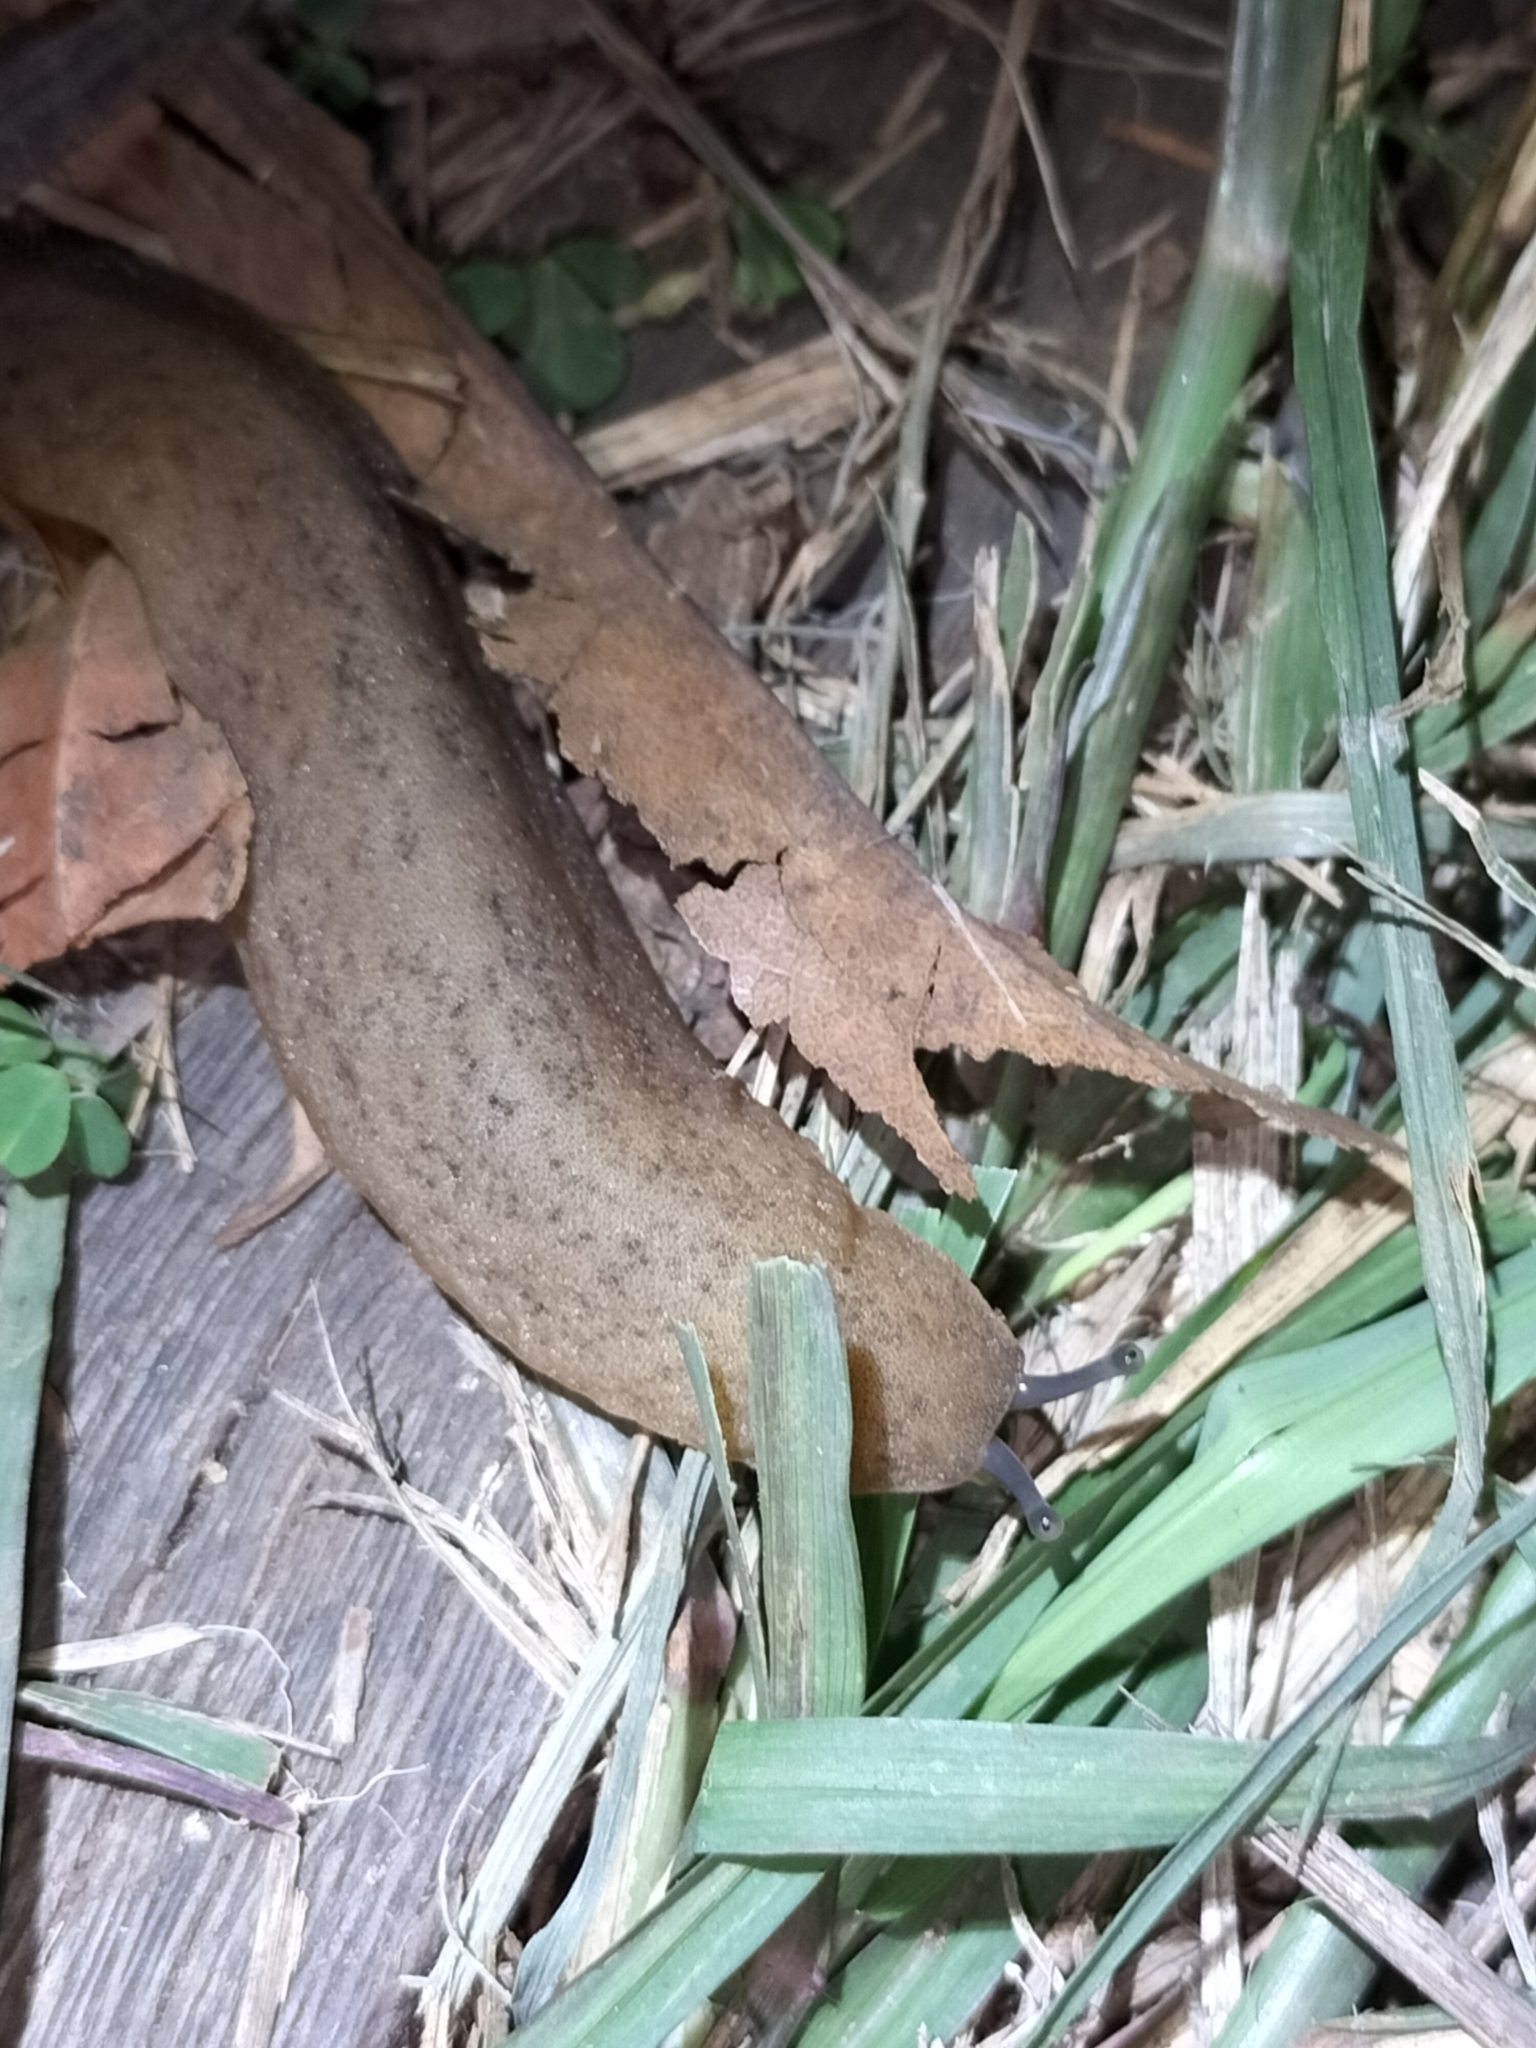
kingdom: Animalia
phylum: Mollusca
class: Gastropoda
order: Systellommatophora
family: Veronicellidae
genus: Sarasinula
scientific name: Sarasinula plebeia
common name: Caribbean leatherleaf
